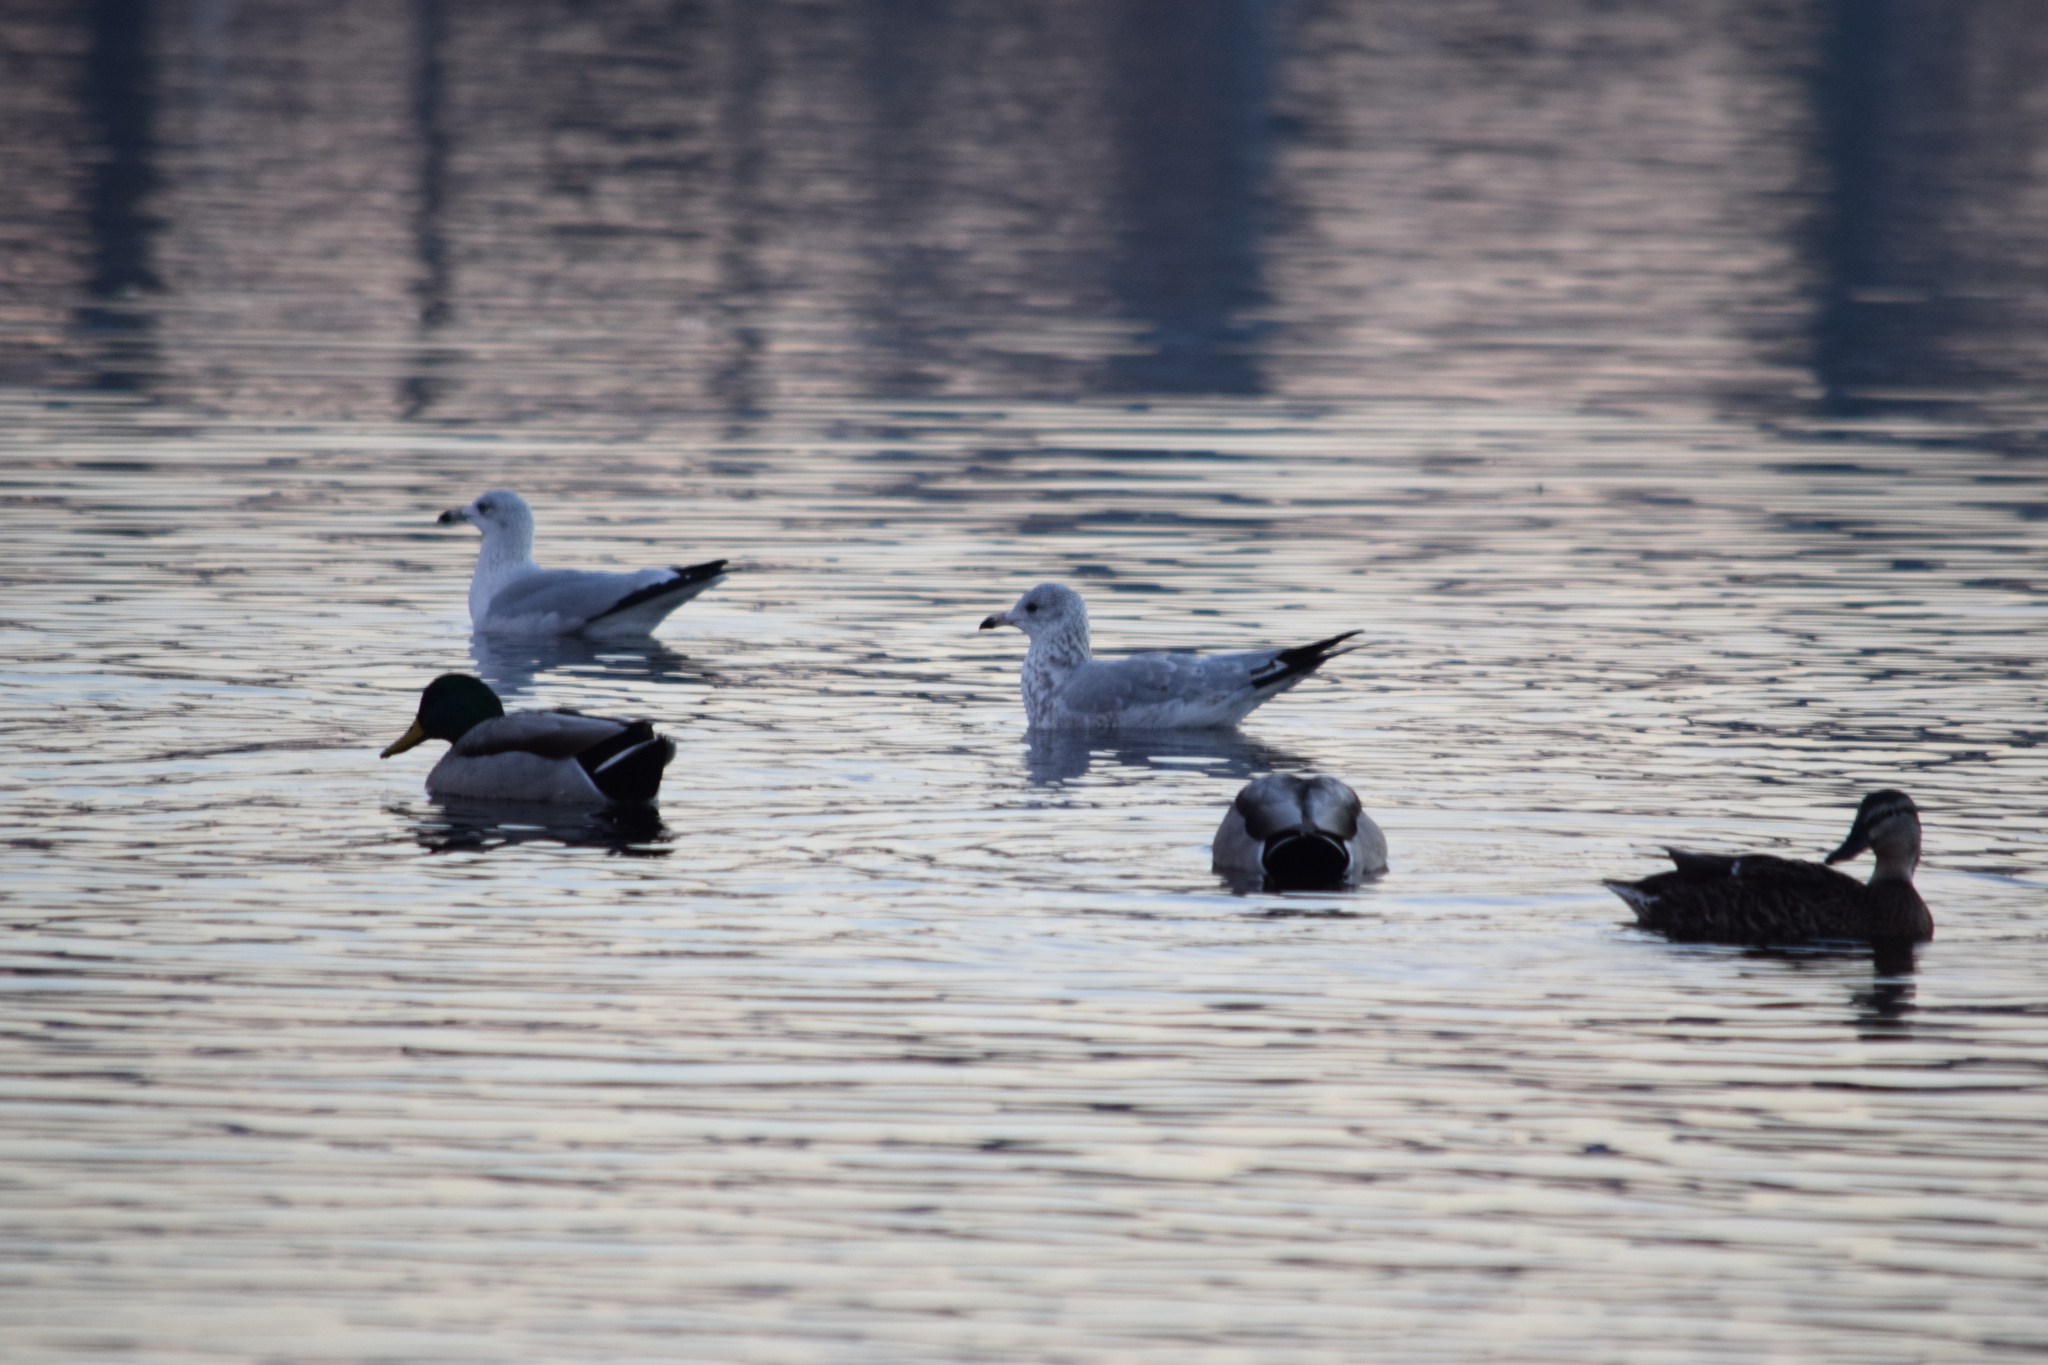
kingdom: Animalia
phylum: Chordata
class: Aves
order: Charadriiformes
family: Laridae
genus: Larus
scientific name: Larus delawarensis
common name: Ring-billed gull
